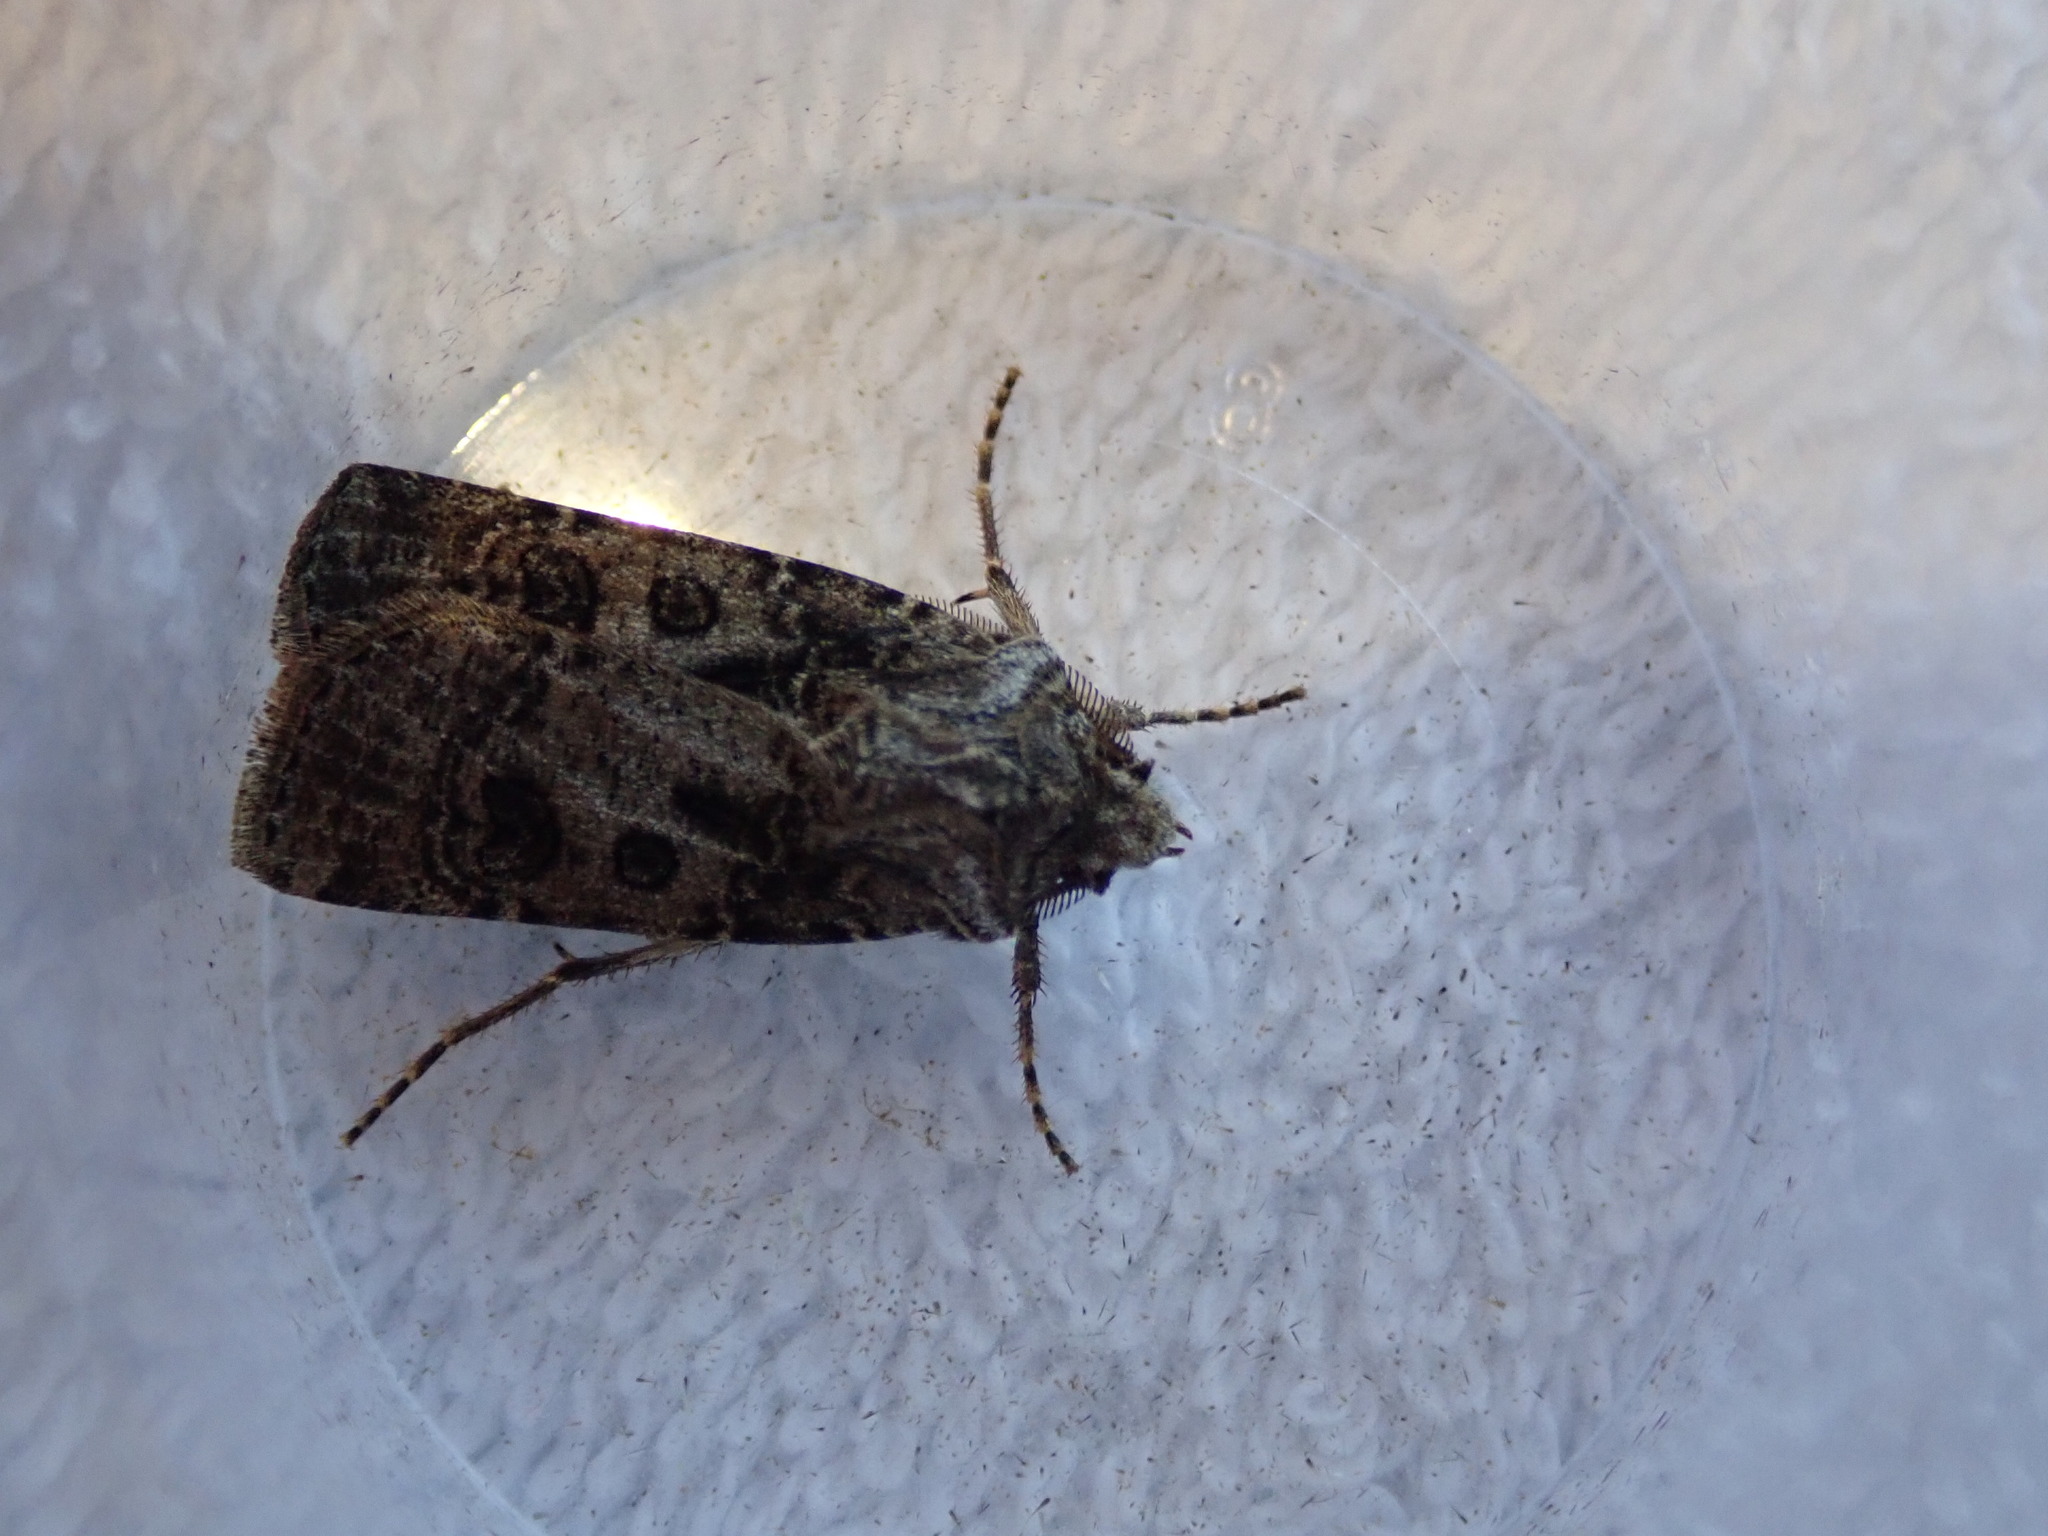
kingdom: Animalia
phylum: Arthropoda
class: Insecta
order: Lepidoptera
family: Noctuidae
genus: Agrotis
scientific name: Agrotis clavis
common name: Heart and club
